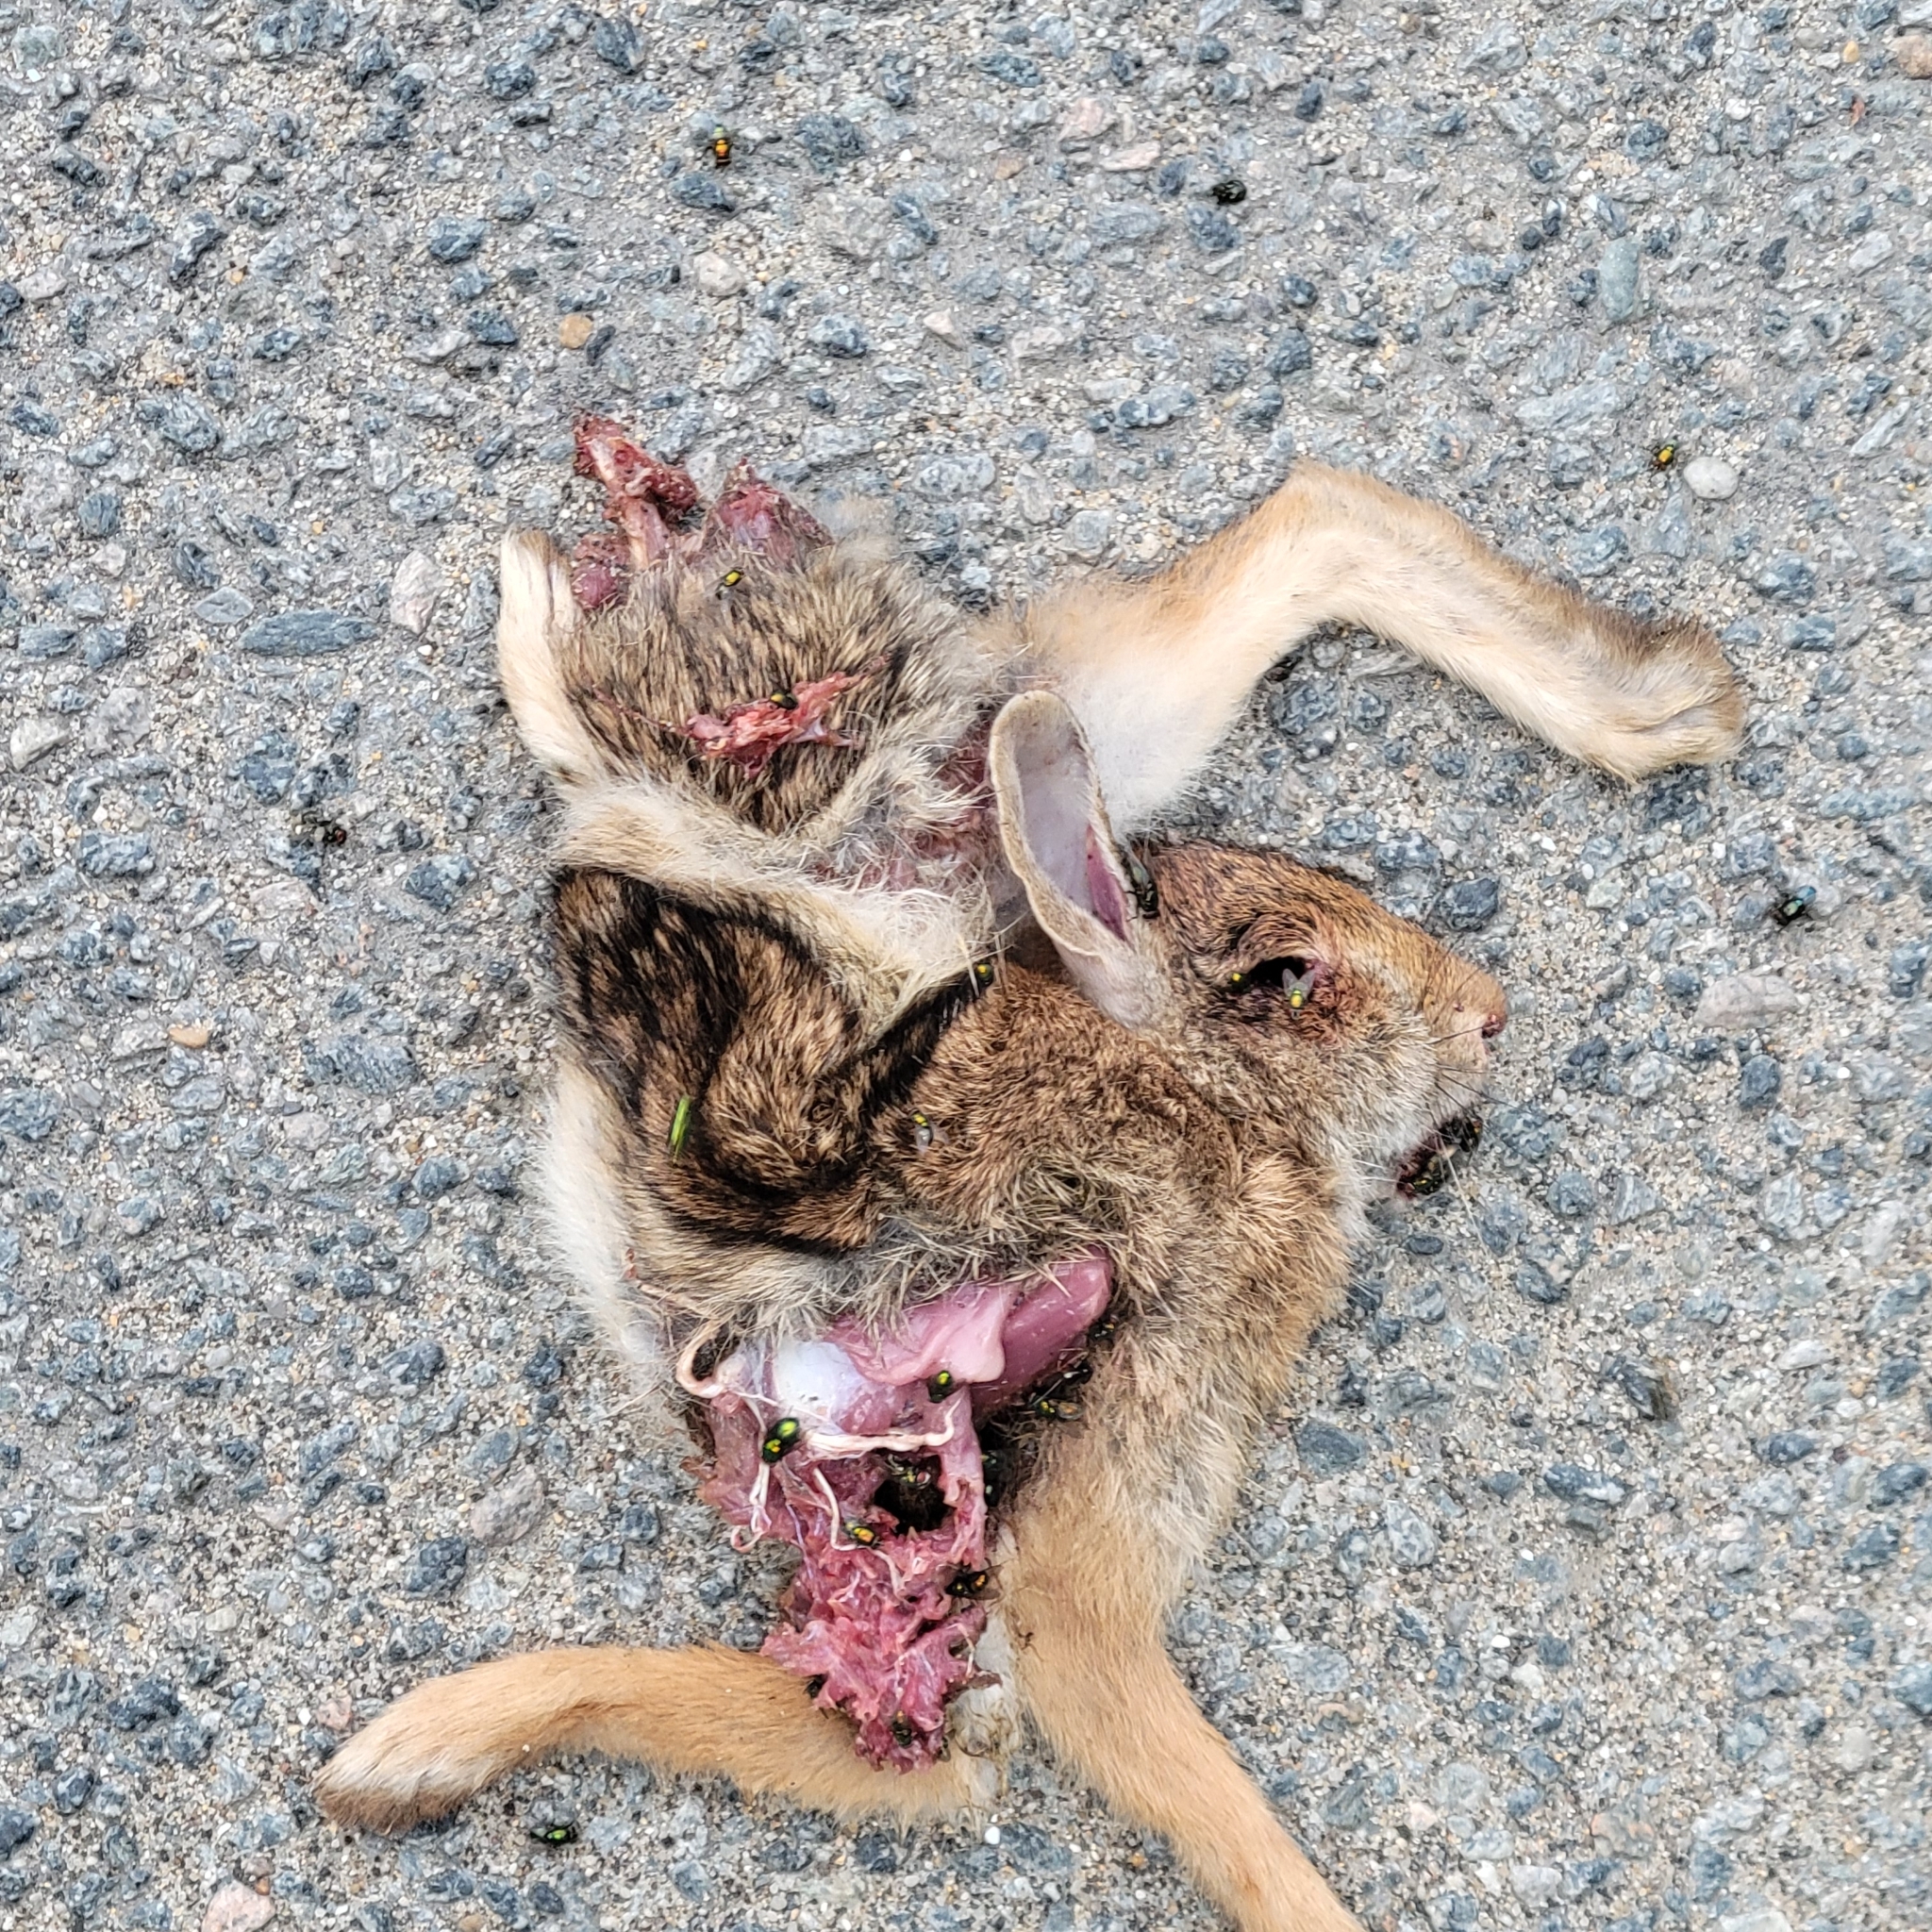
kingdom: Animalia
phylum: Chordata
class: Mammalia
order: Lagomorpha
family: Leporidae
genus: Sylvilagus
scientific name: Sylvilagus floridanus
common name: Eastern cottontail
